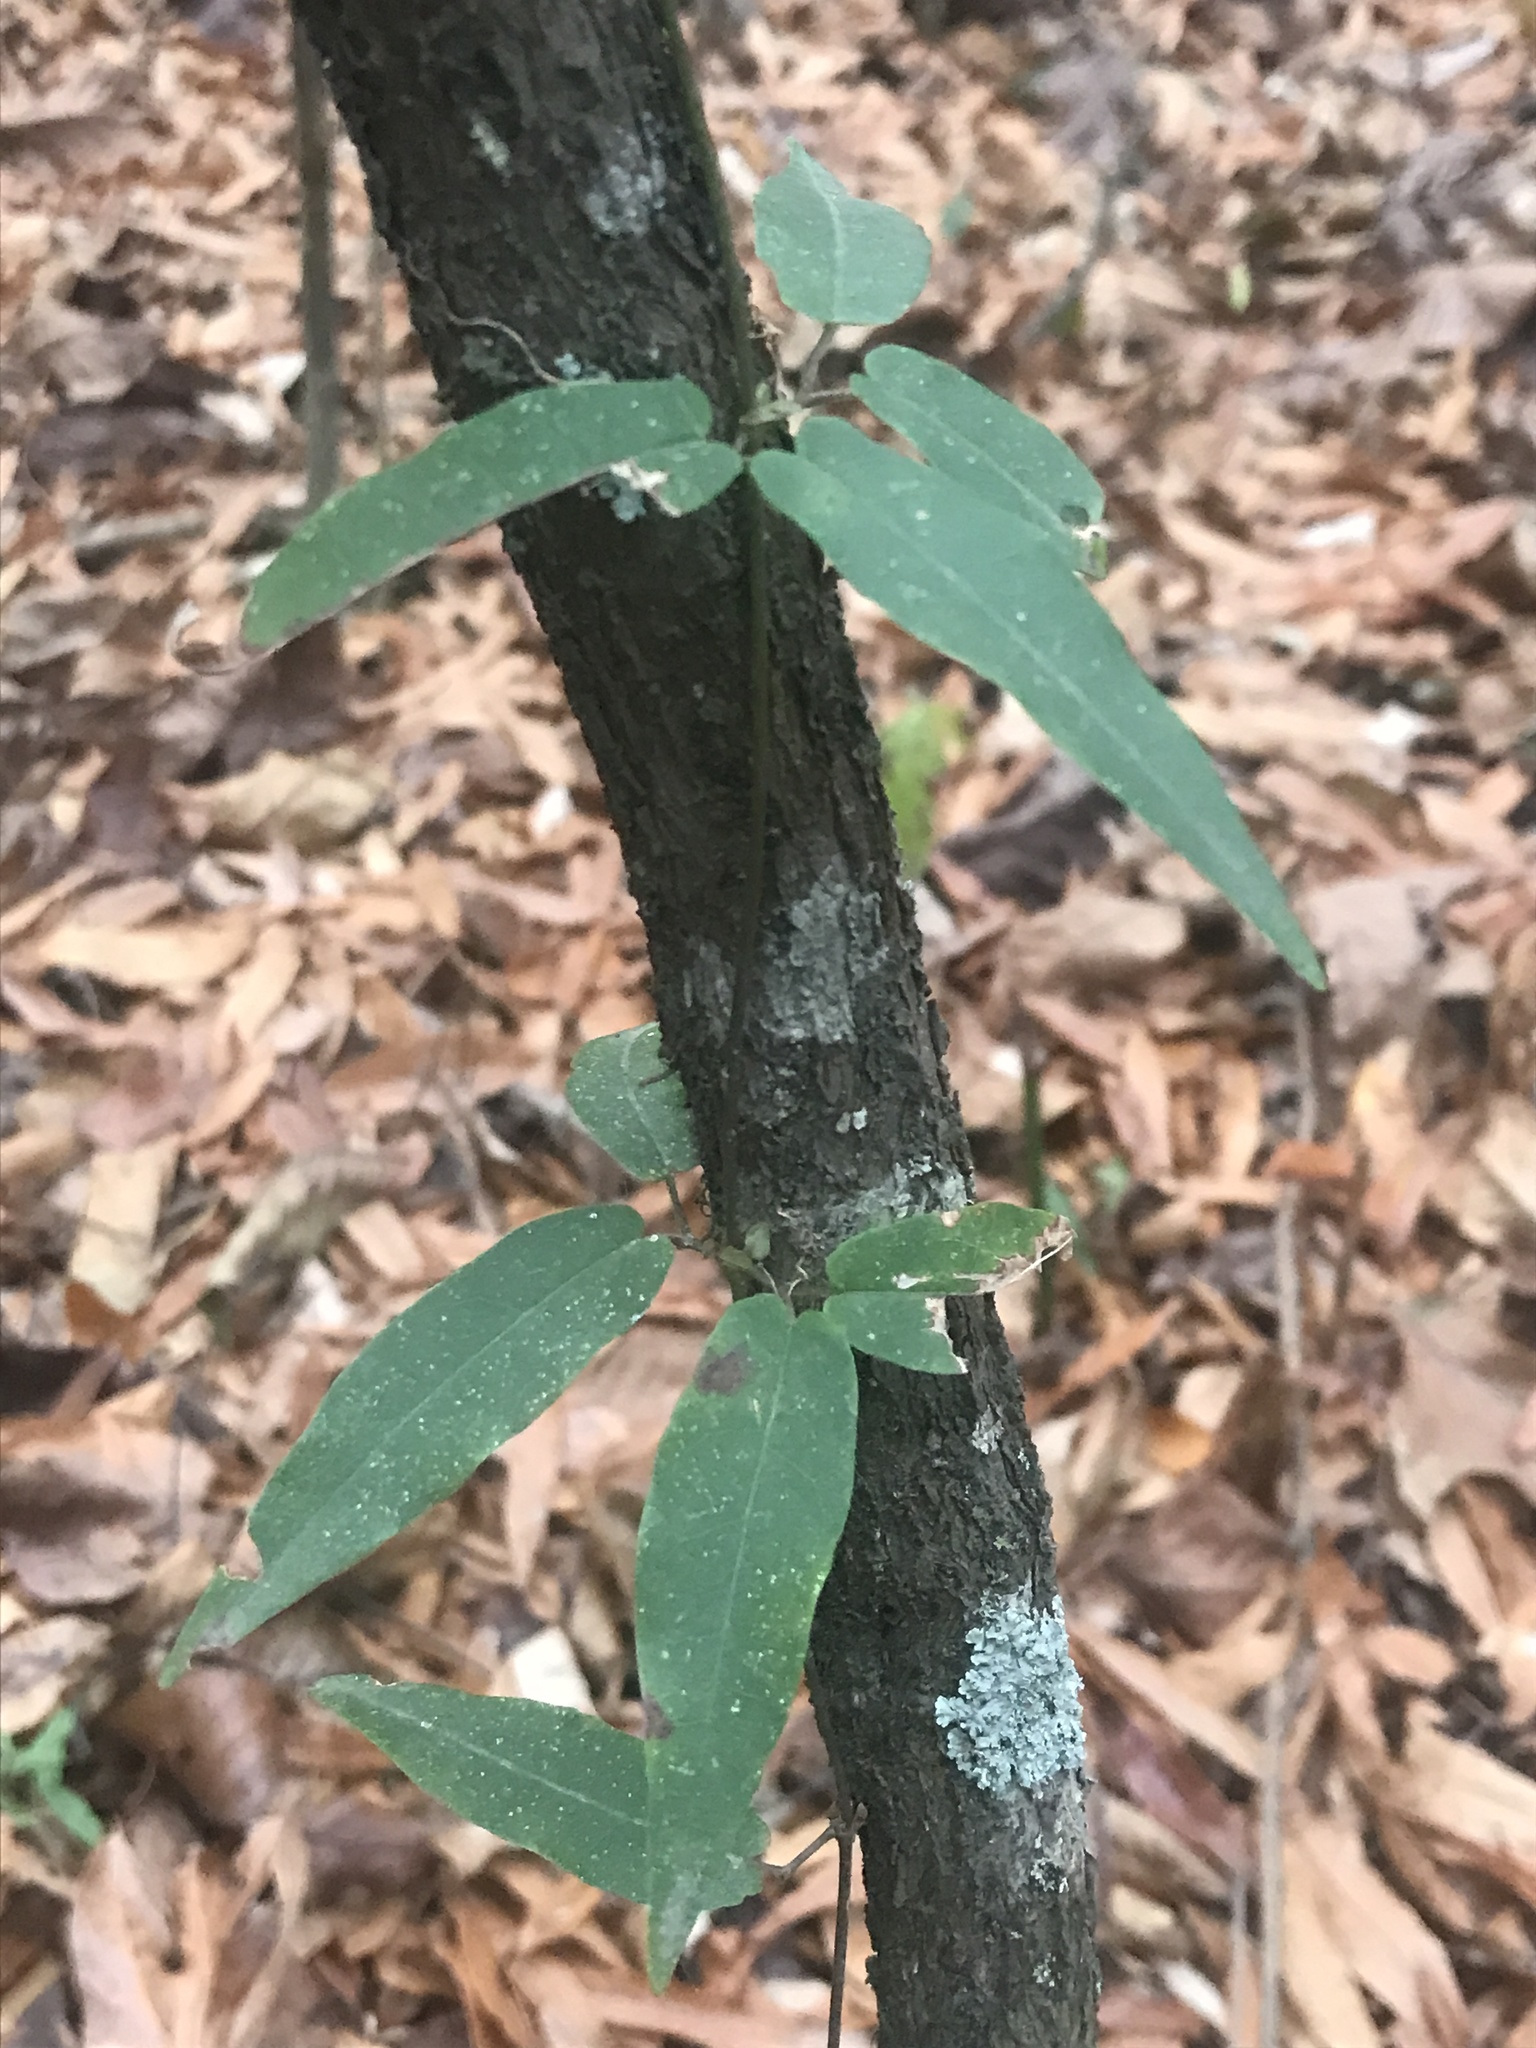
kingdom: Plantae
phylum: Tracheophyta
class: Magnoliopsida
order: Lamiales
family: Bignoniaceae
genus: Bignonia
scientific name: Bignonia capreolata
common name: Crossvine
